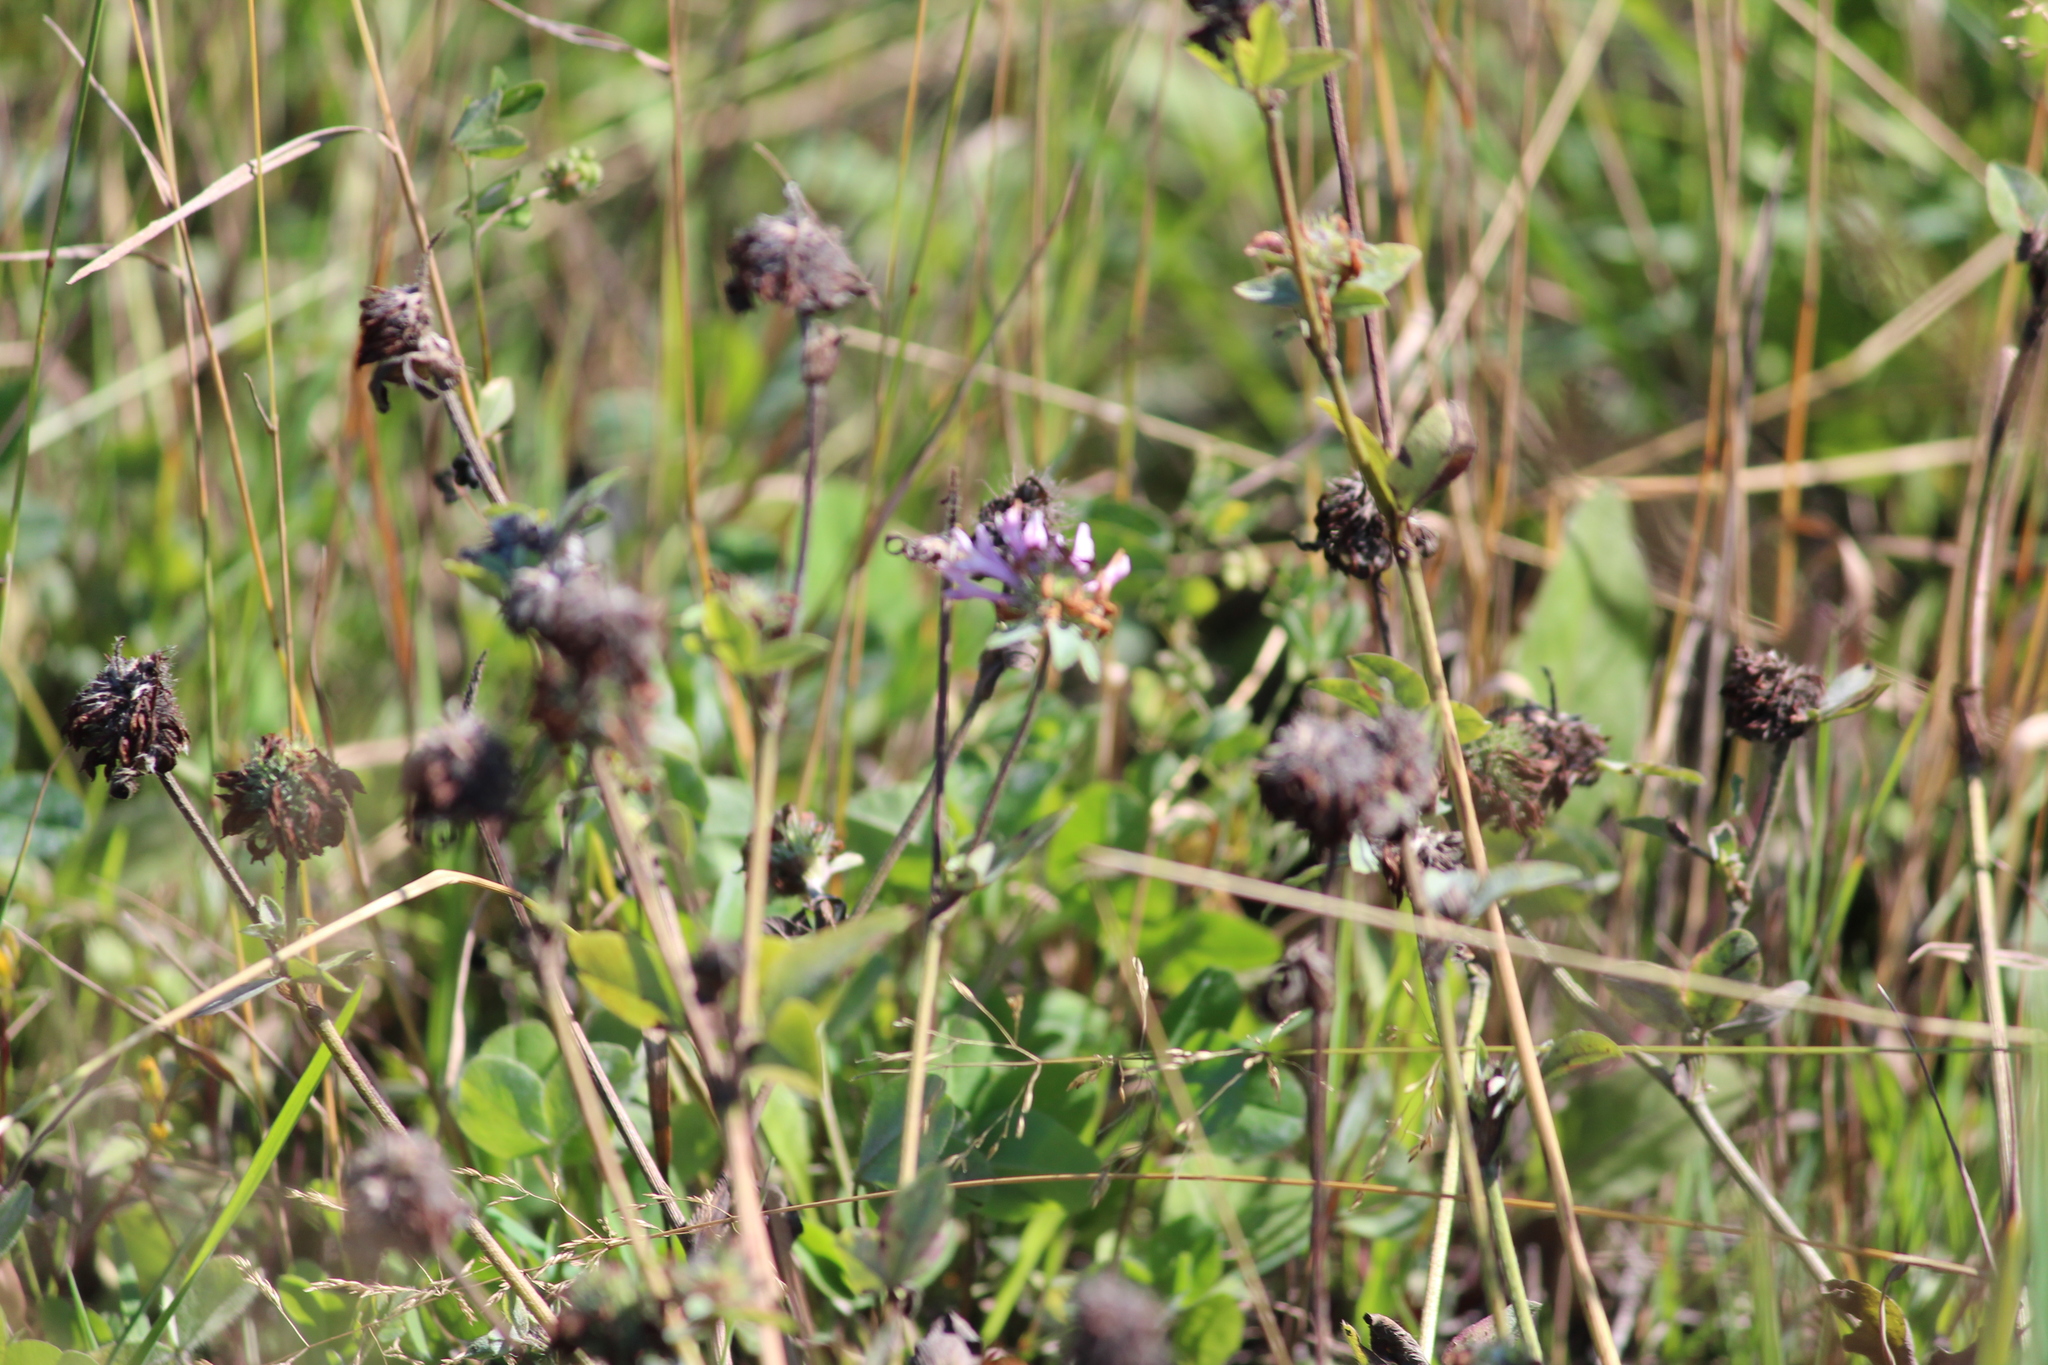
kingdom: Plantae
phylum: Tracheophyta
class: Magnoliopsida
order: Fabales
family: Fabaceae
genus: Trifolium
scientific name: Trifolium pratense
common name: Red clover
